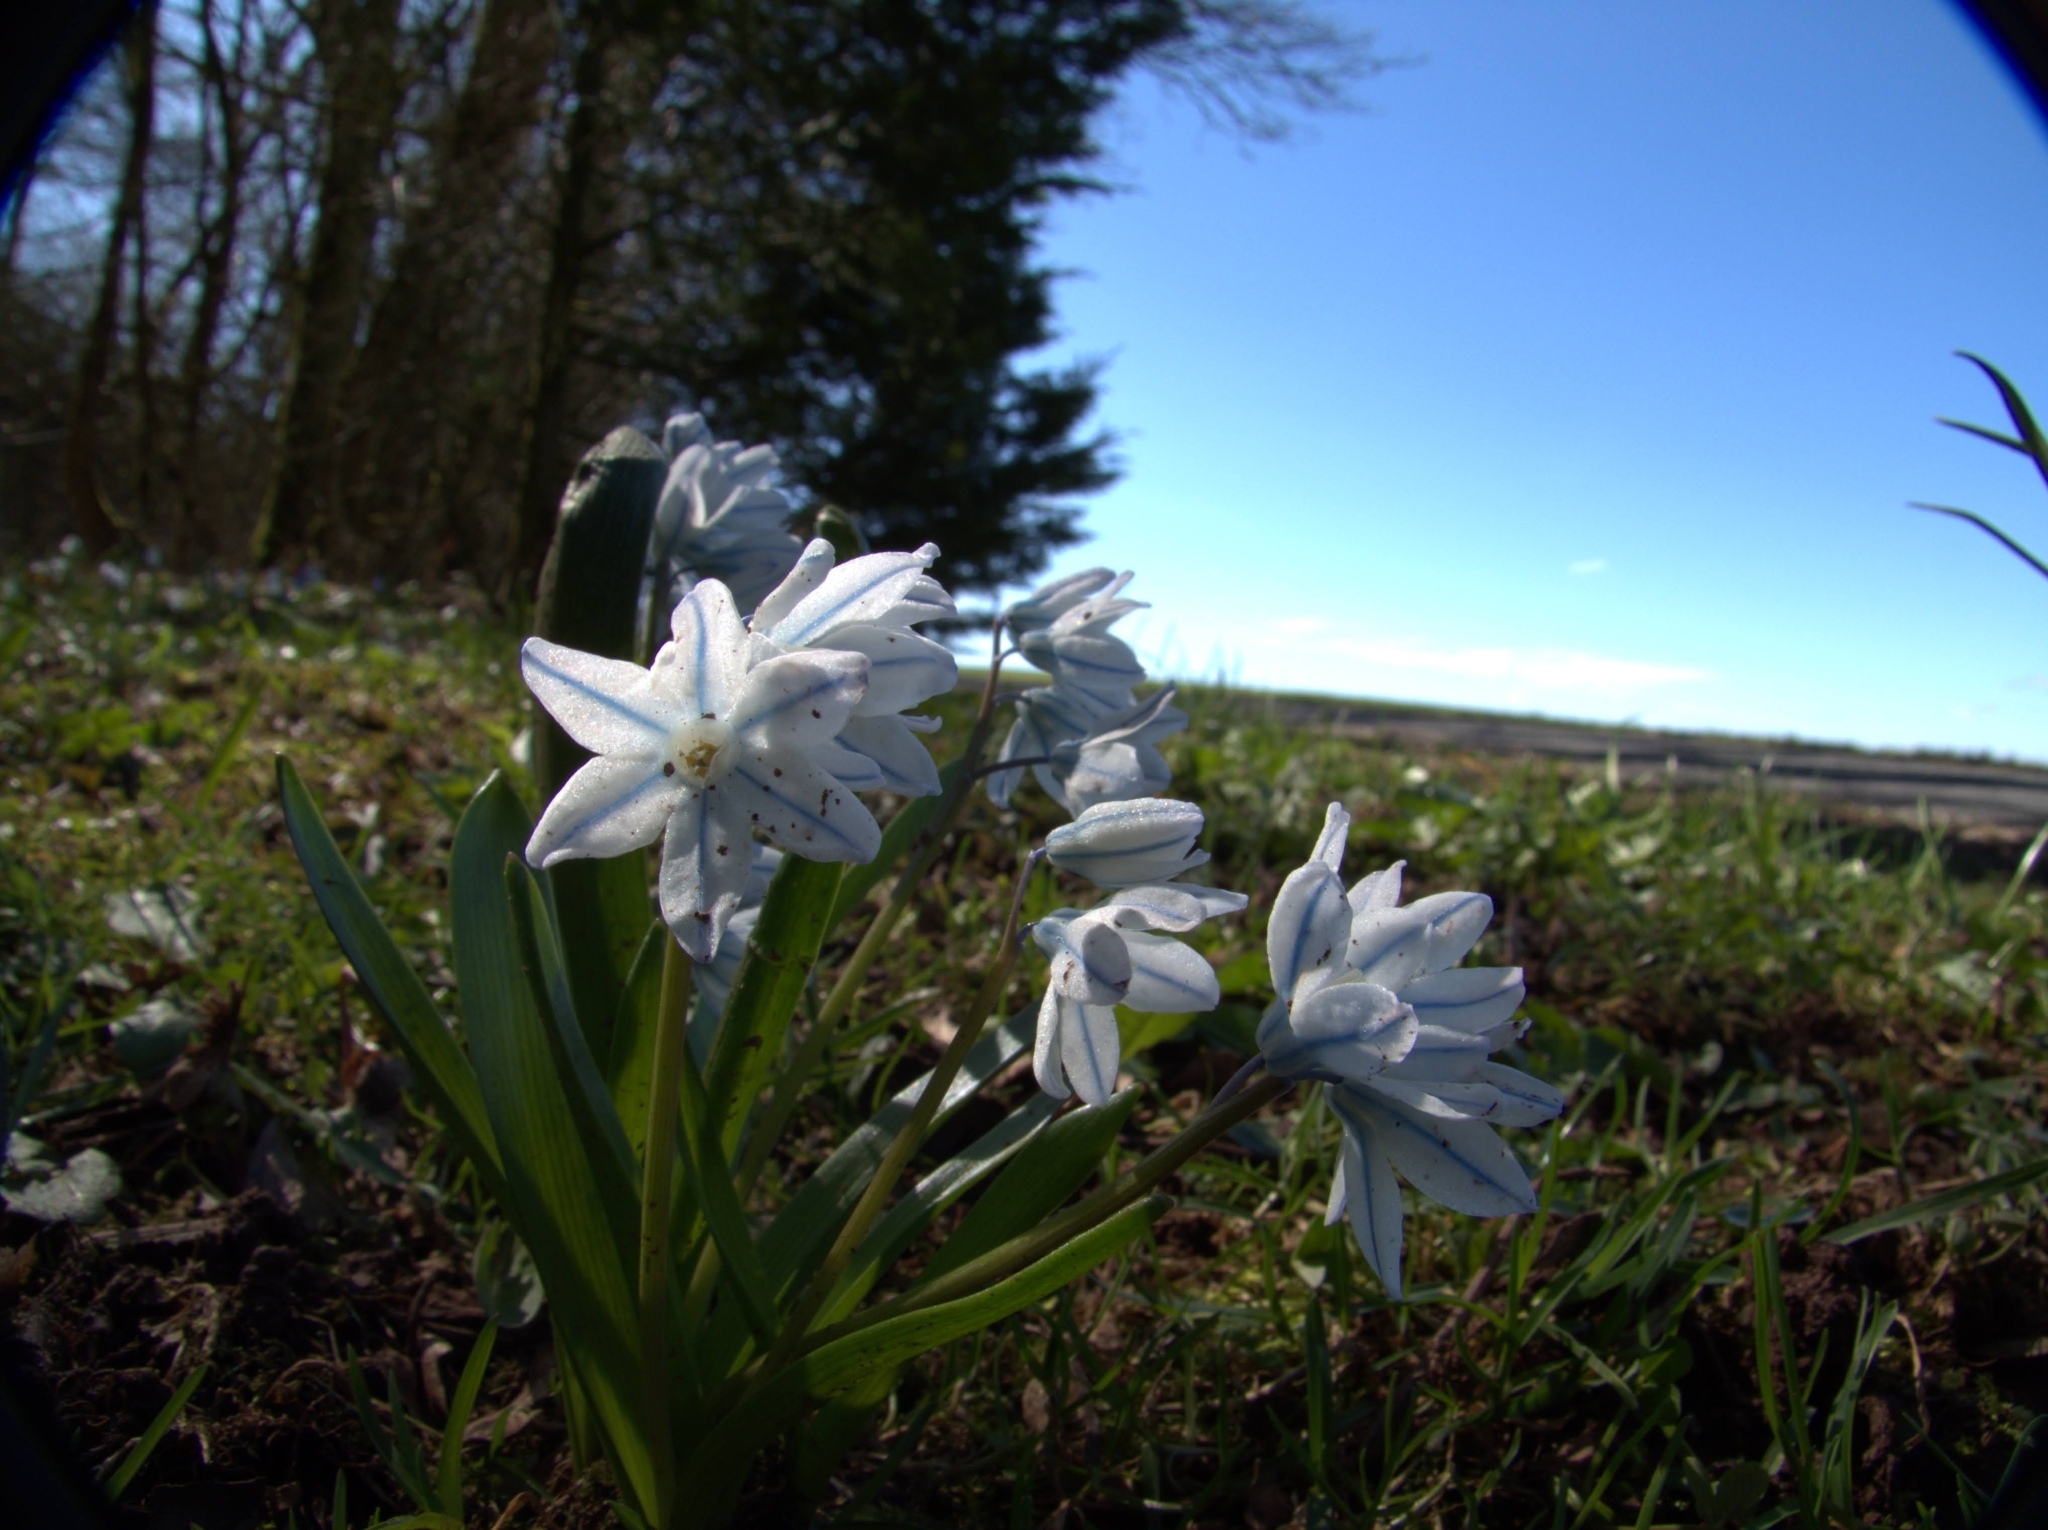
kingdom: Plantae
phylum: Tracheophyta
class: Liliopsida
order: Asparagales
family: Asparagaceae
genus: Puschkinia
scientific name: Puschkinia scilloides
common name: Striped squill
